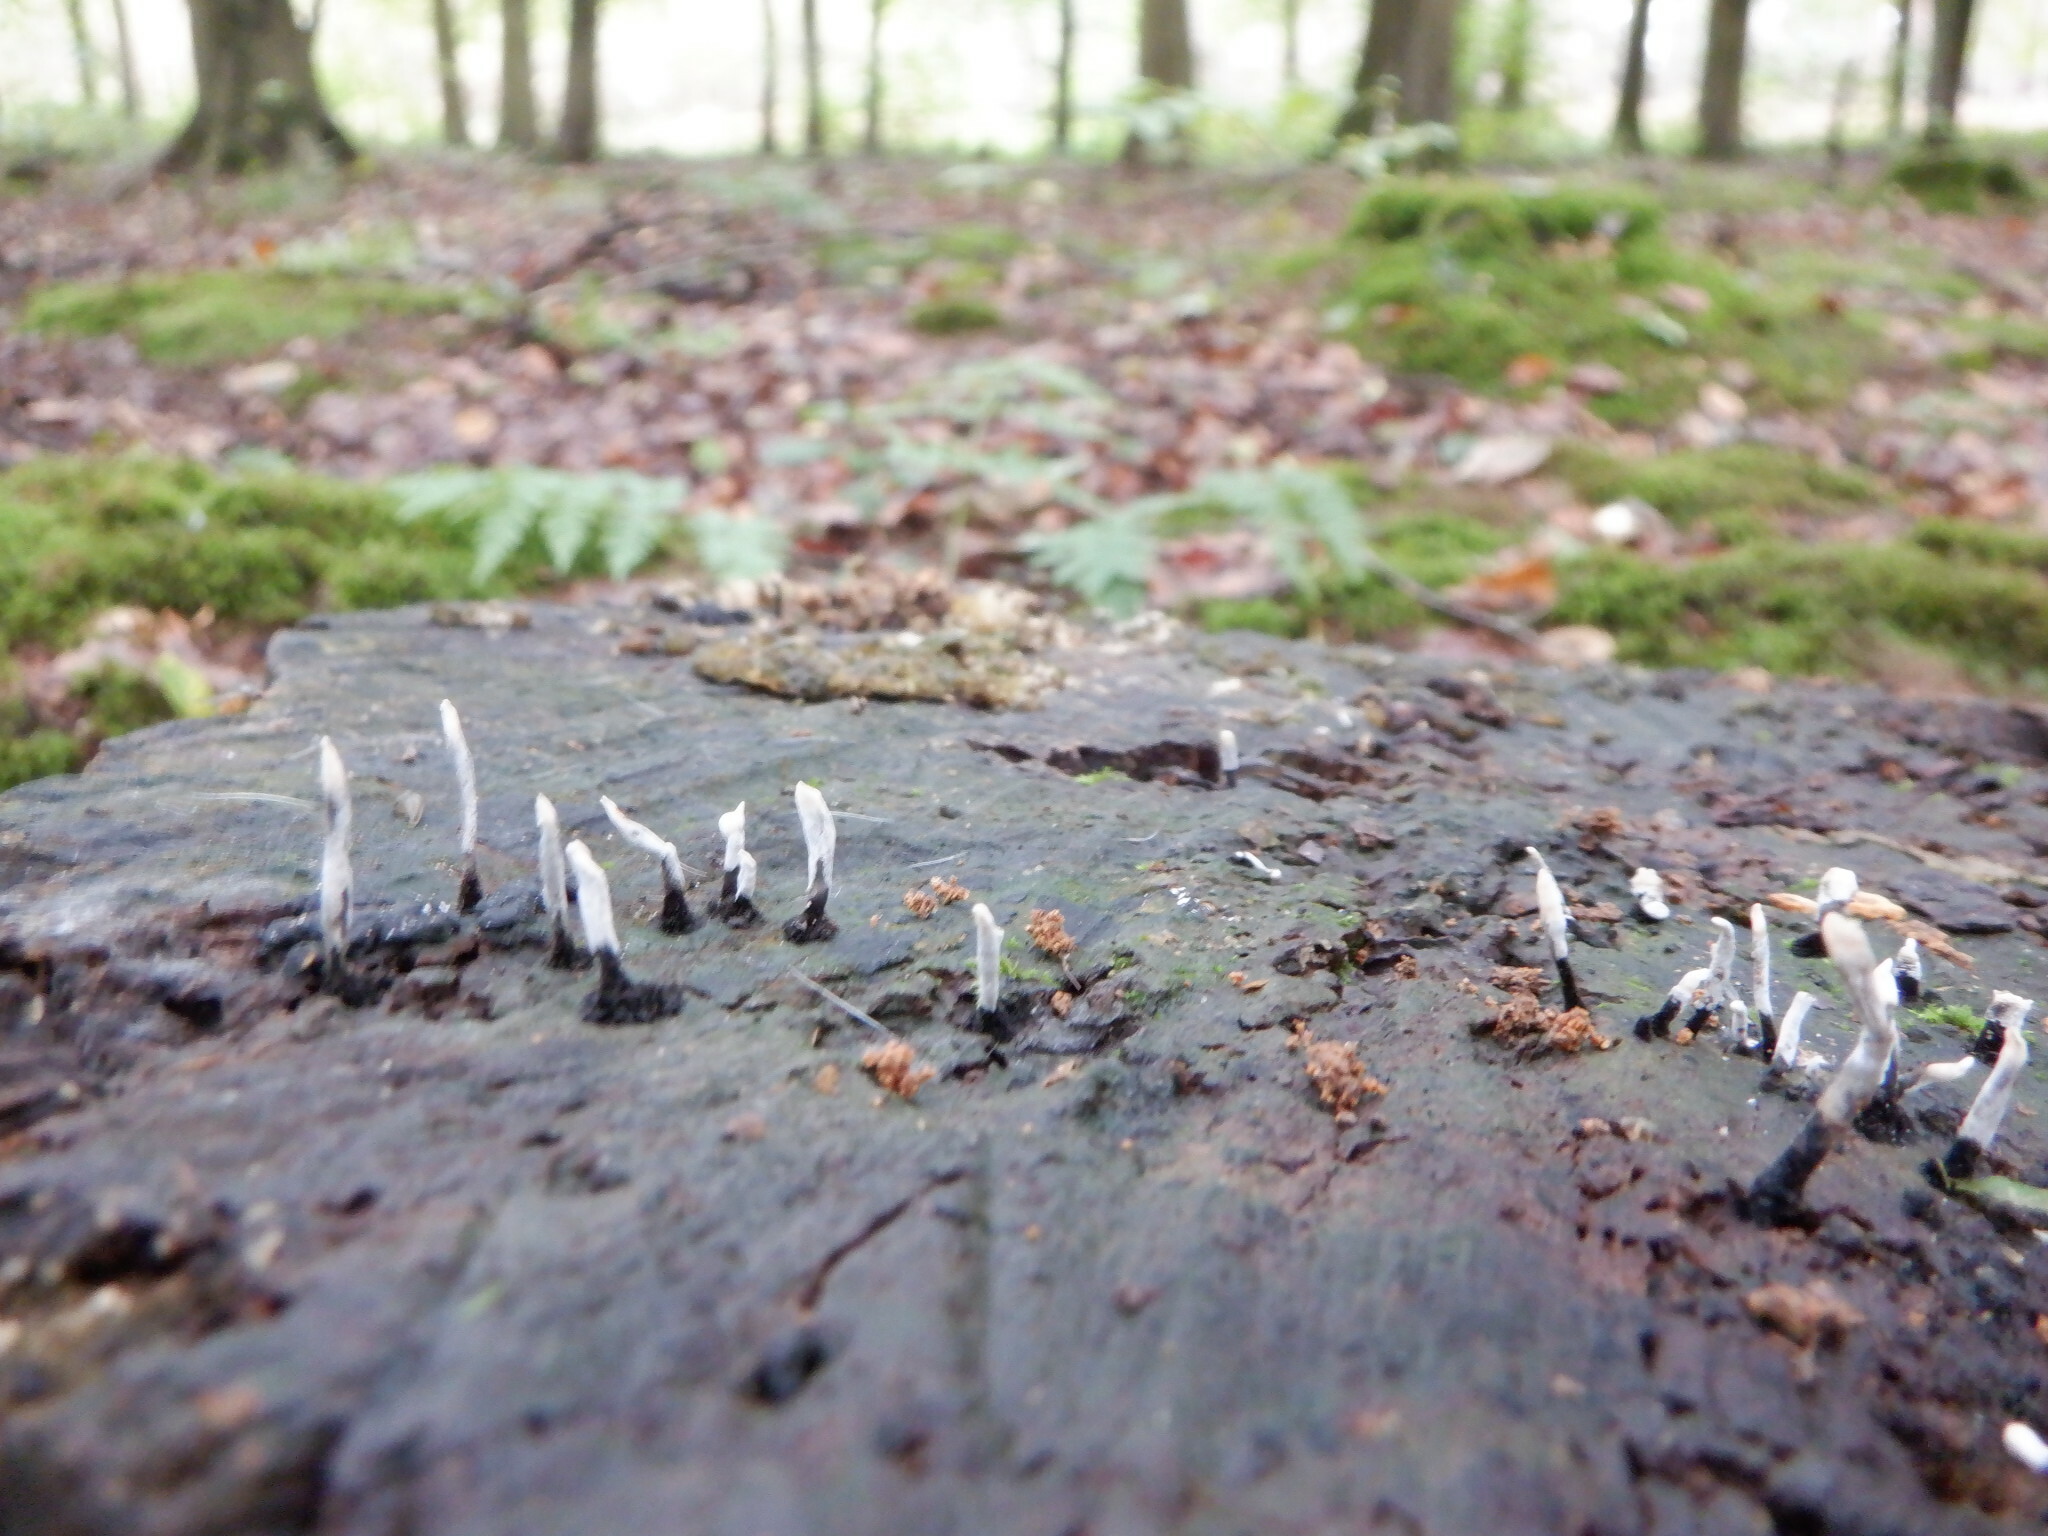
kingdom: Fungi
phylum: Ascomycota
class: Sordariomycetes
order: Xylariales
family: Xylariaceae
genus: Xylaria
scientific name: Xylaria hypoxylon
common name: Candle-snuff fungus
